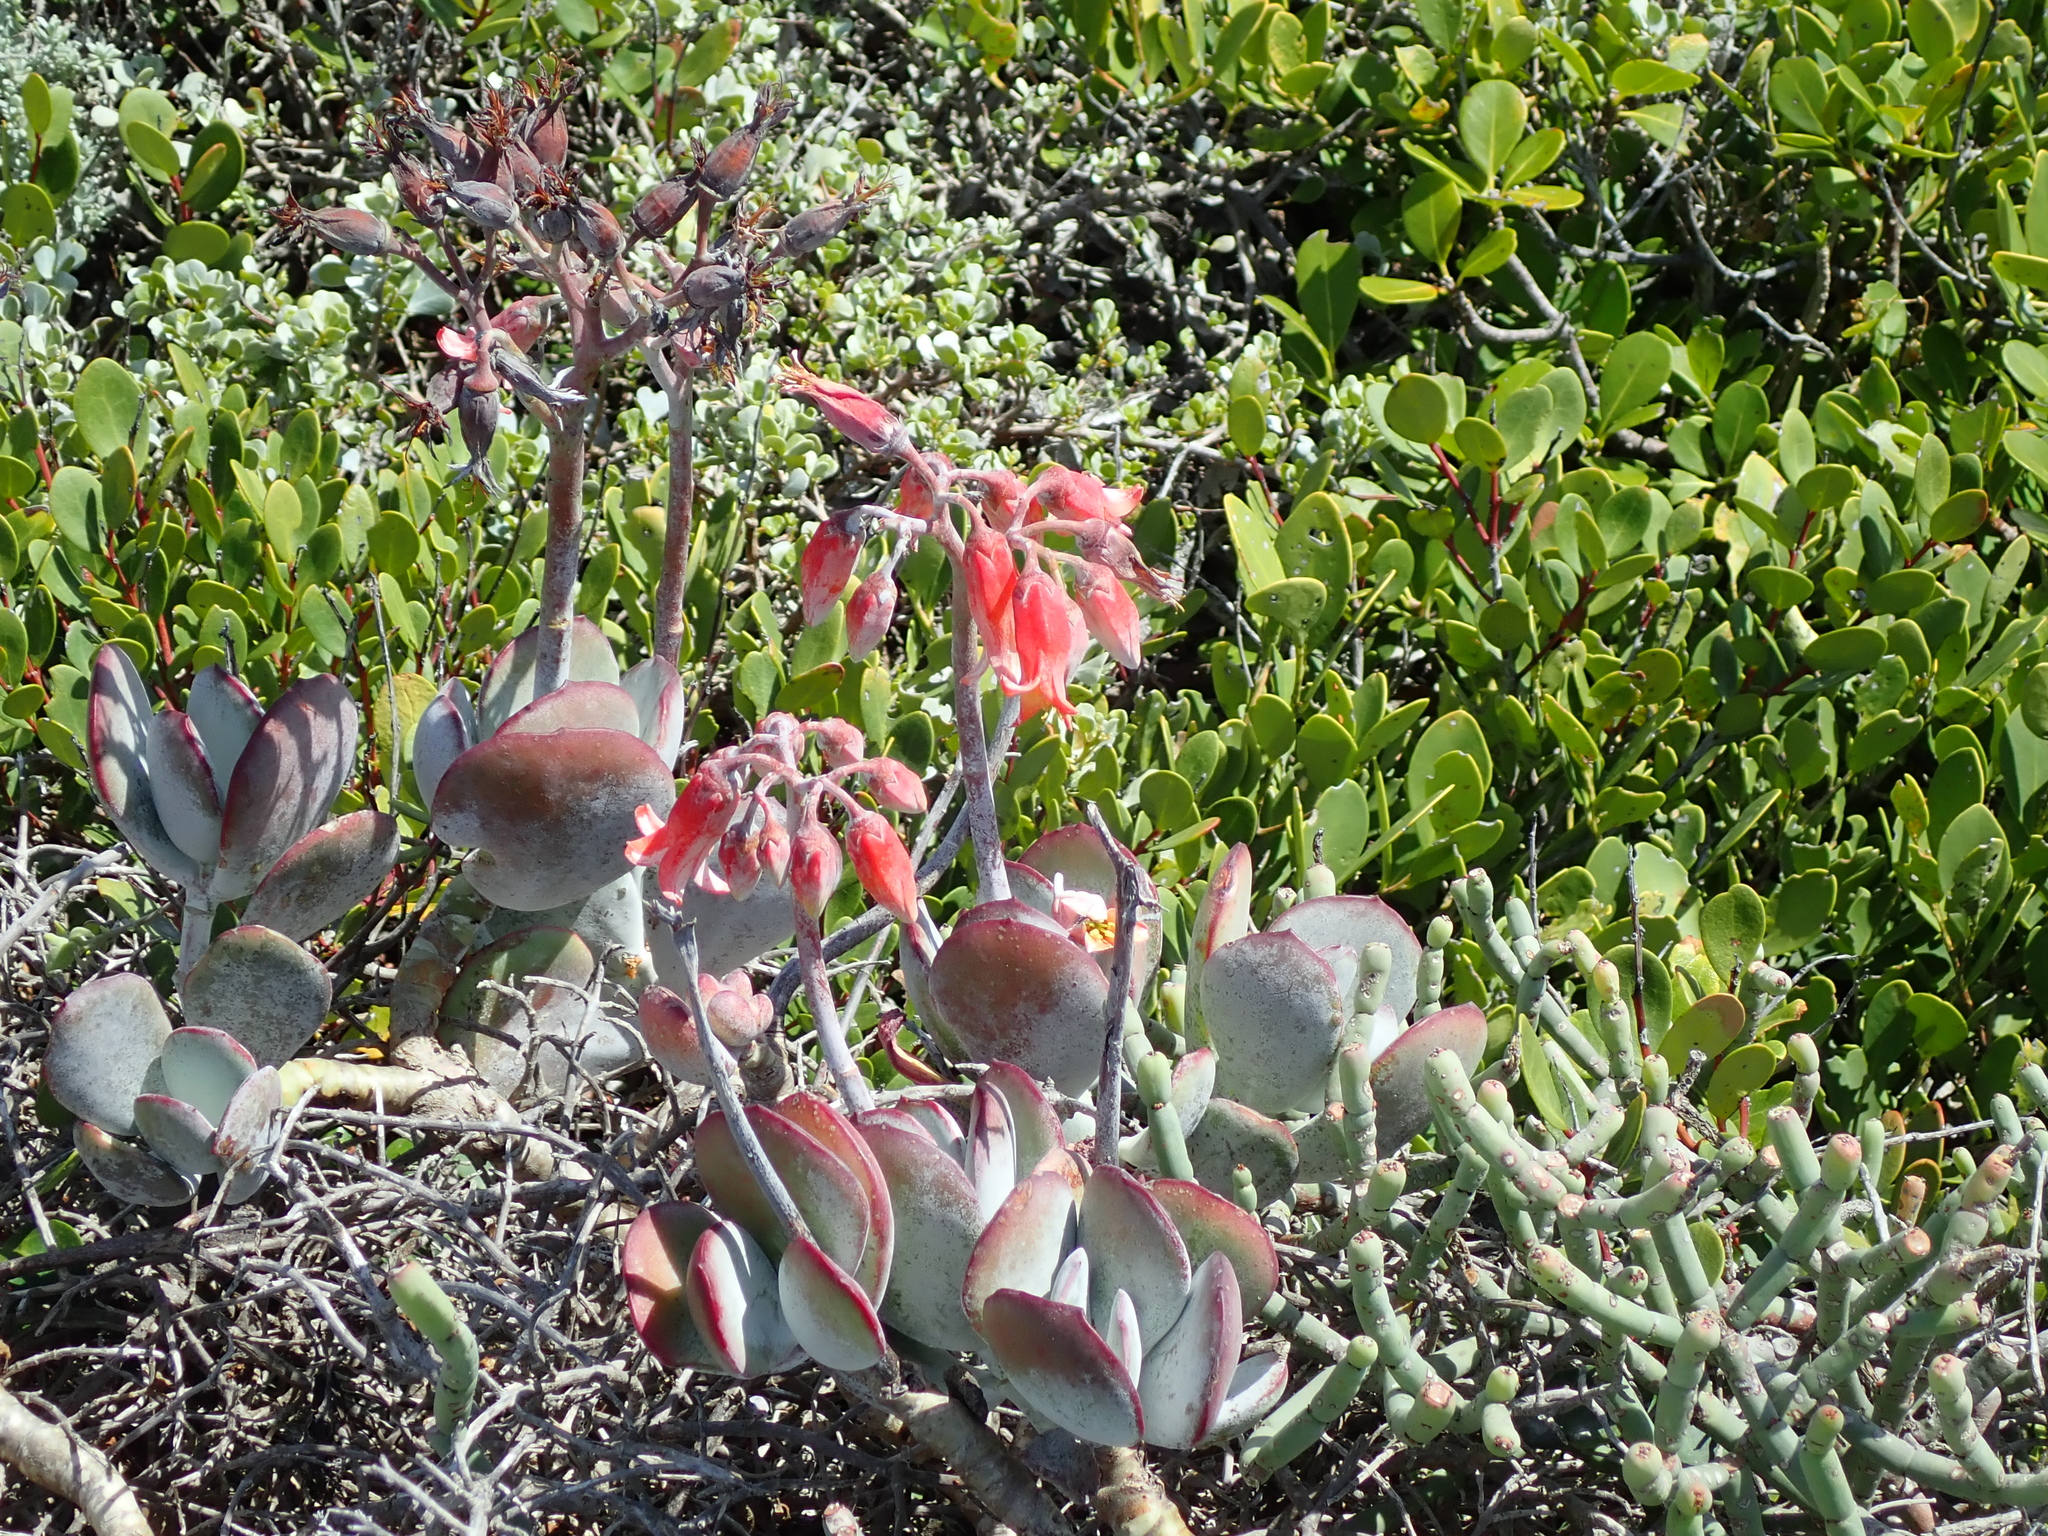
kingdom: Plantae
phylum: Tracheophyta
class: Magnoliopsida
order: Saxifragales
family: Crassulaceae
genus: Cotyledon
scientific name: Cotyledon orbiculata
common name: Pig's ear
